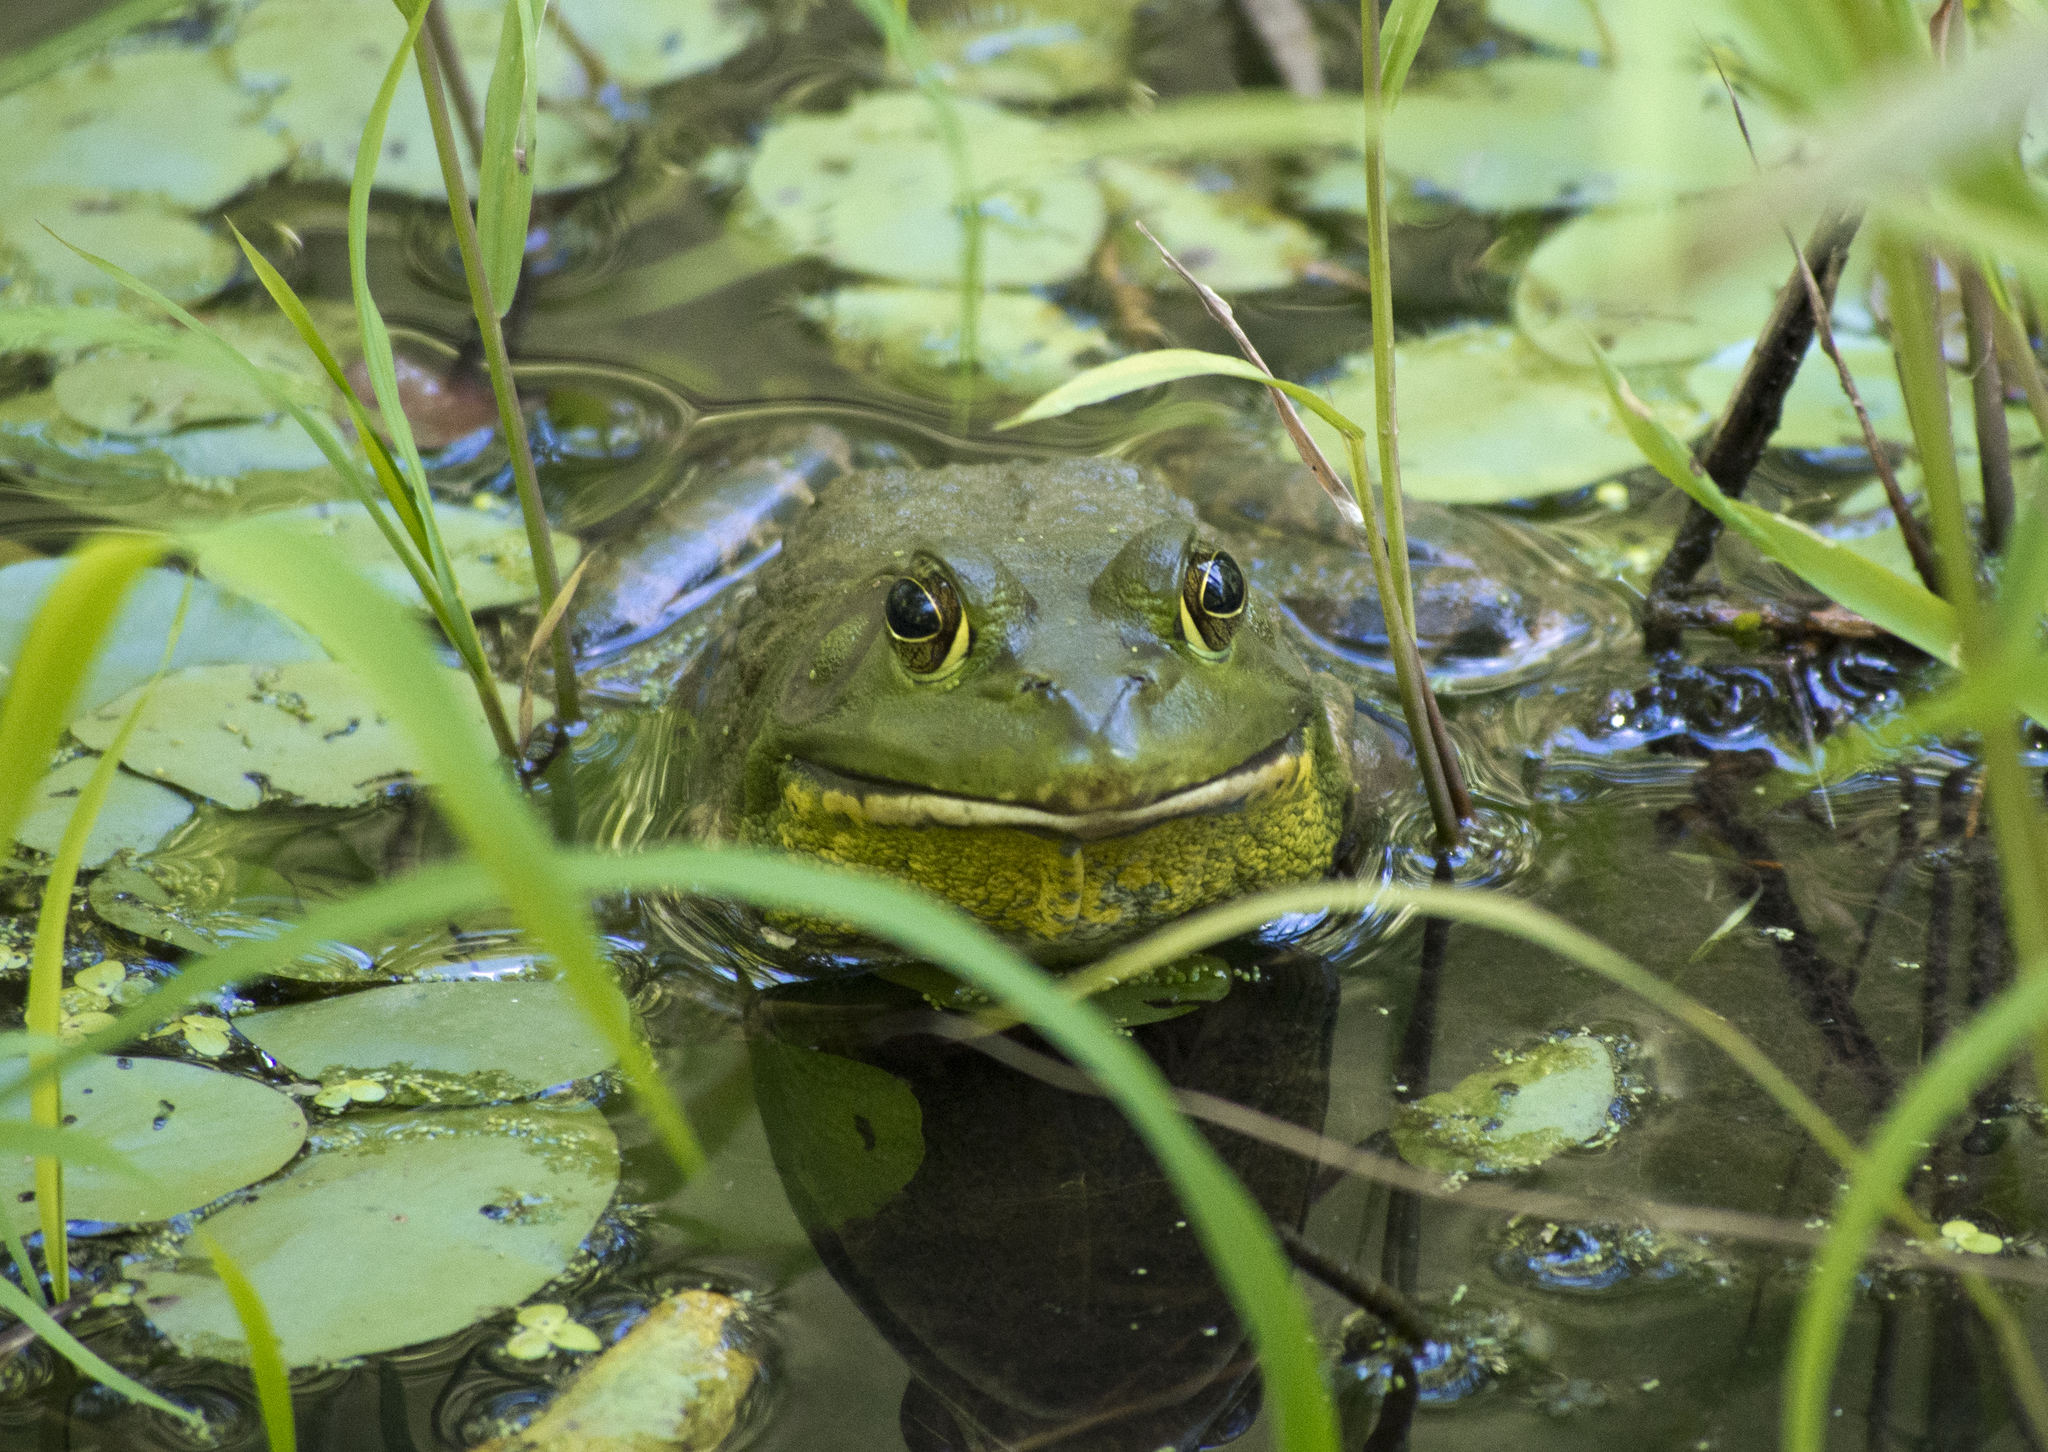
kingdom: Animalia
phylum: Chordata
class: Amphibia
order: Anura
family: Ranidae
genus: Lithobates
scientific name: Lithobates catesbeianus
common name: American bullfrog
